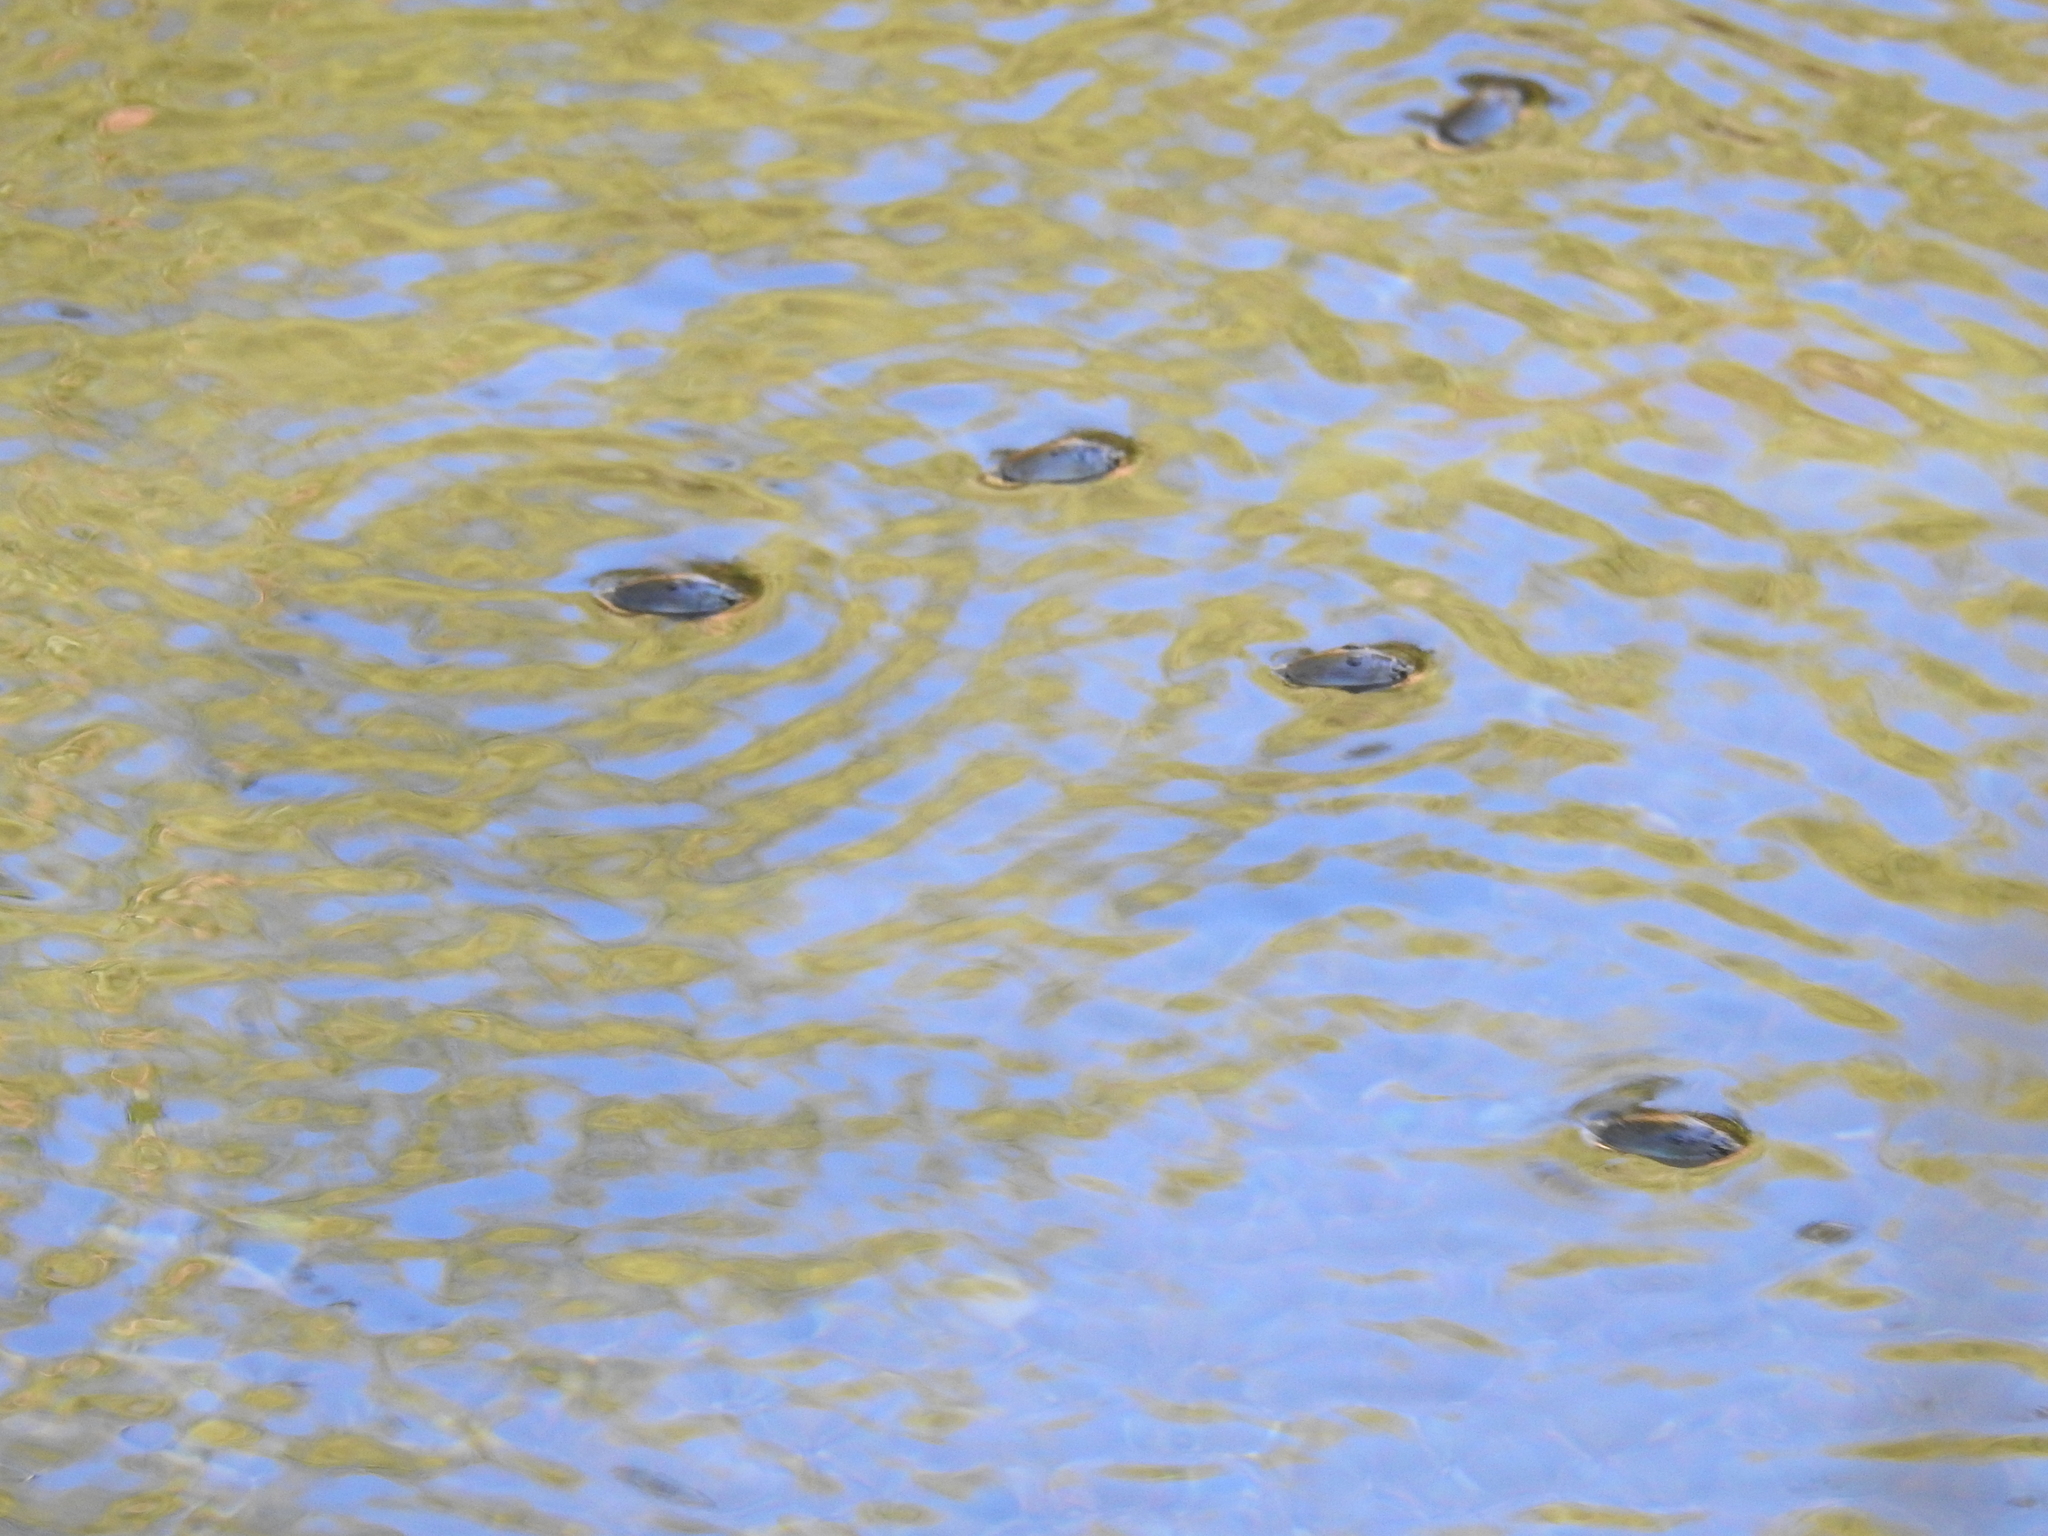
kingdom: Animalia
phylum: Arthropoda
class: Insecta
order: Coleoptera
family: Gyrinidae
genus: Dineutus
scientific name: Dineutus
